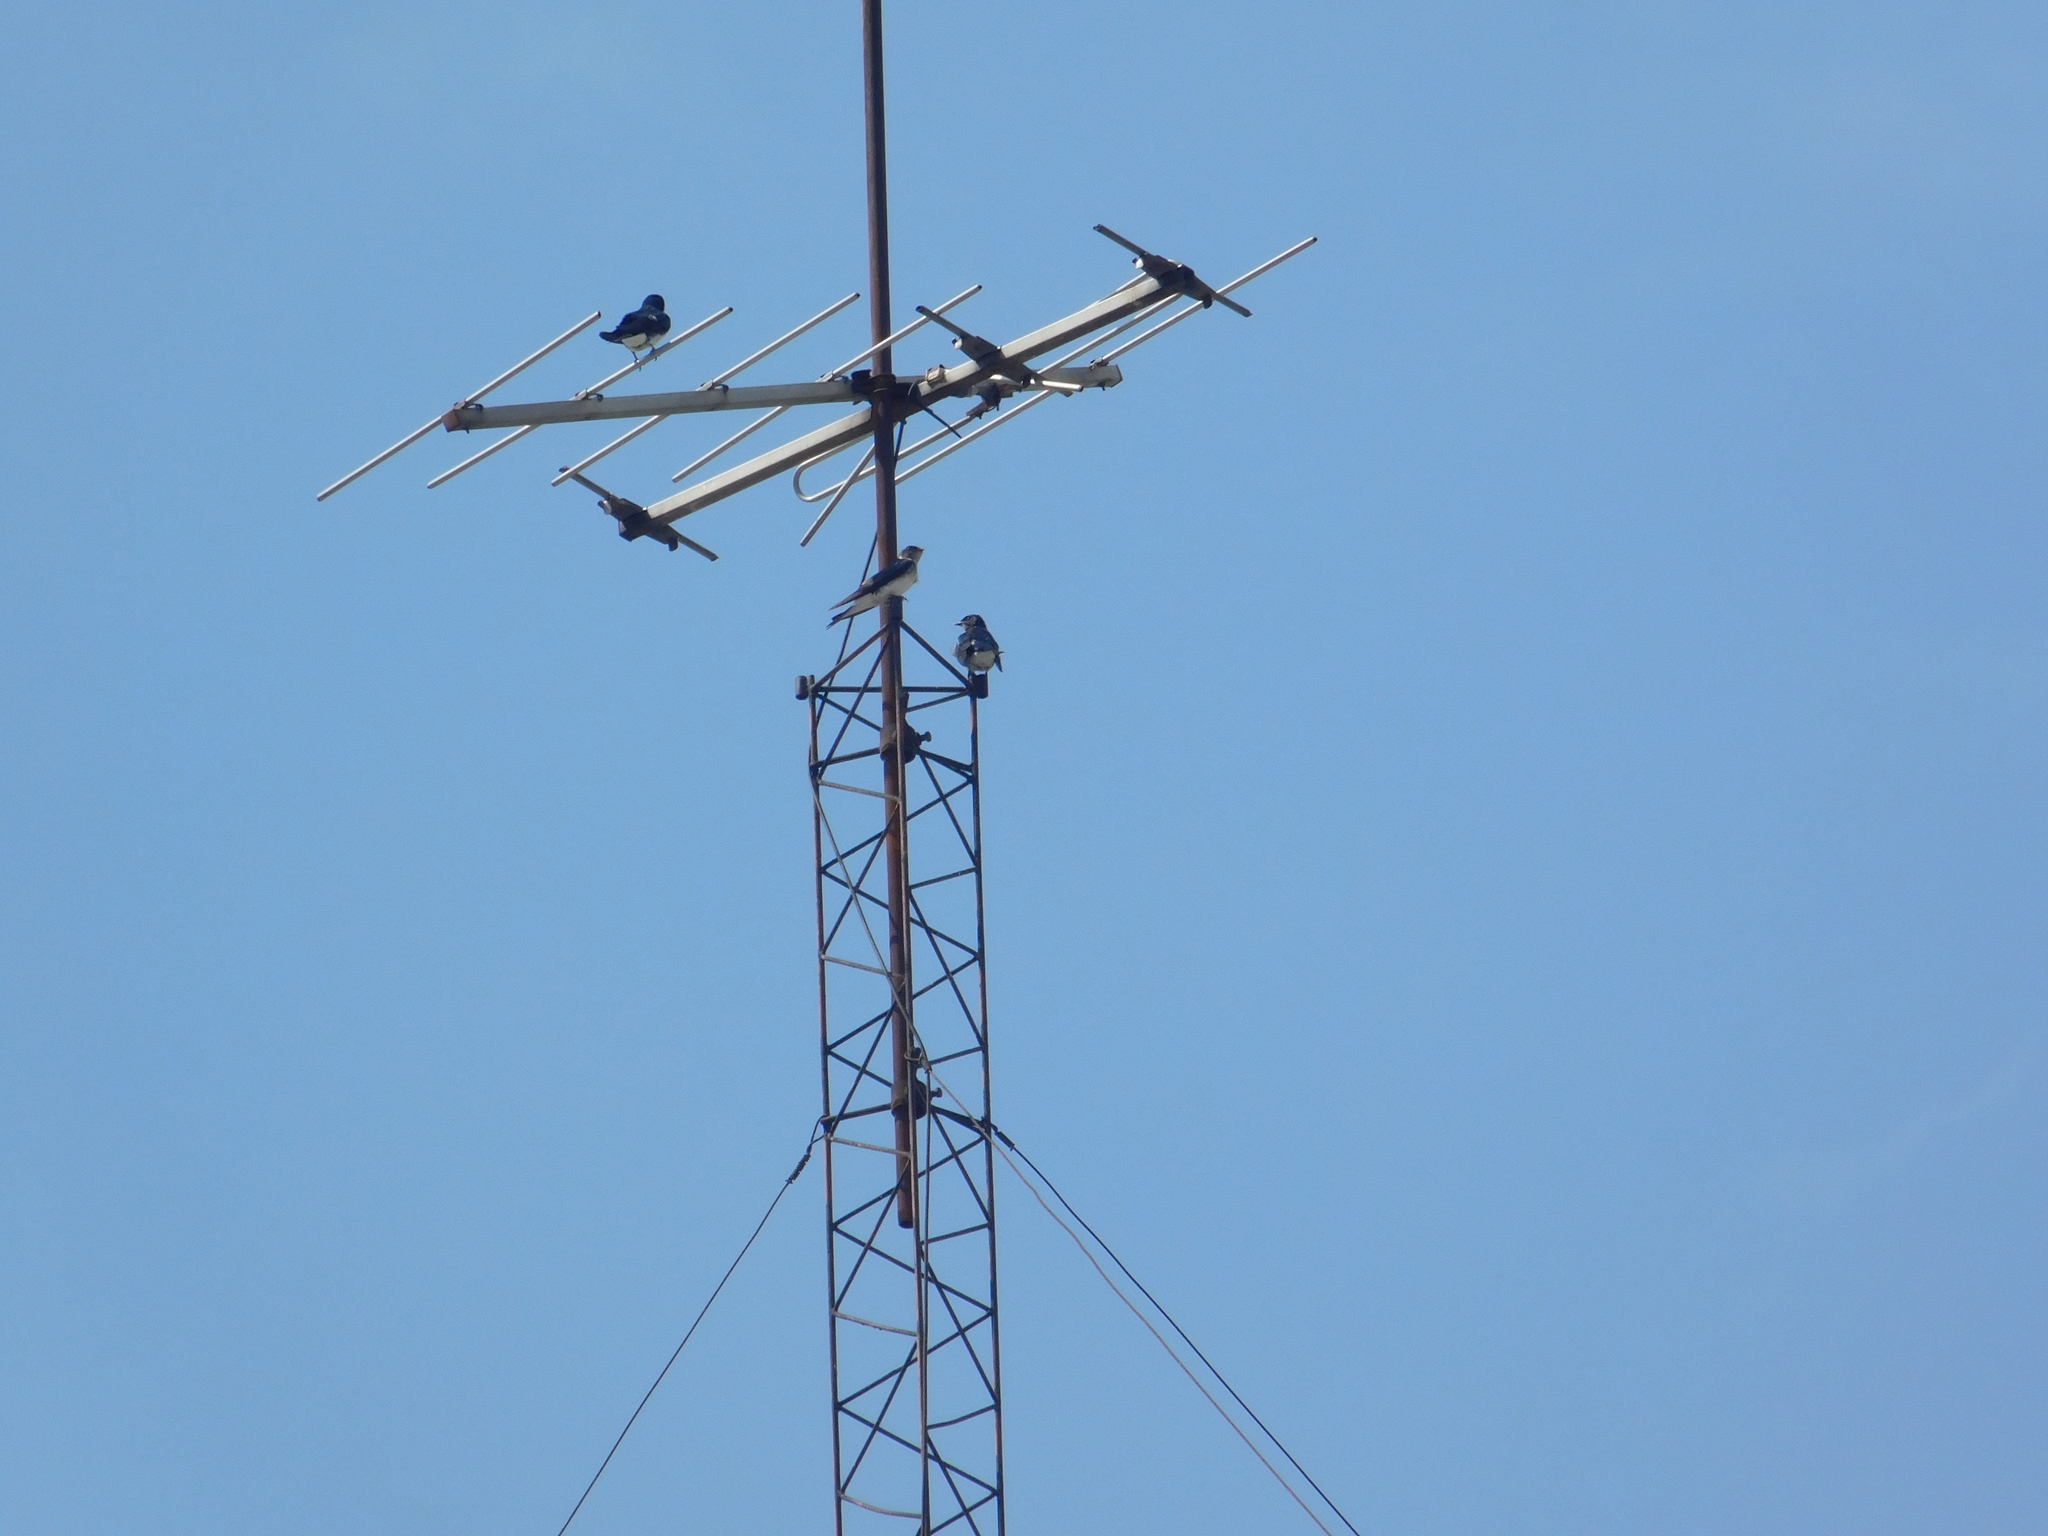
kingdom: Animalia
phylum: Chordata
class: Aves
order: Passeriformes
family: Hirundinidae
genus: Progne
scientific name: Progne chalybea
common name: Grey-breasted martin
